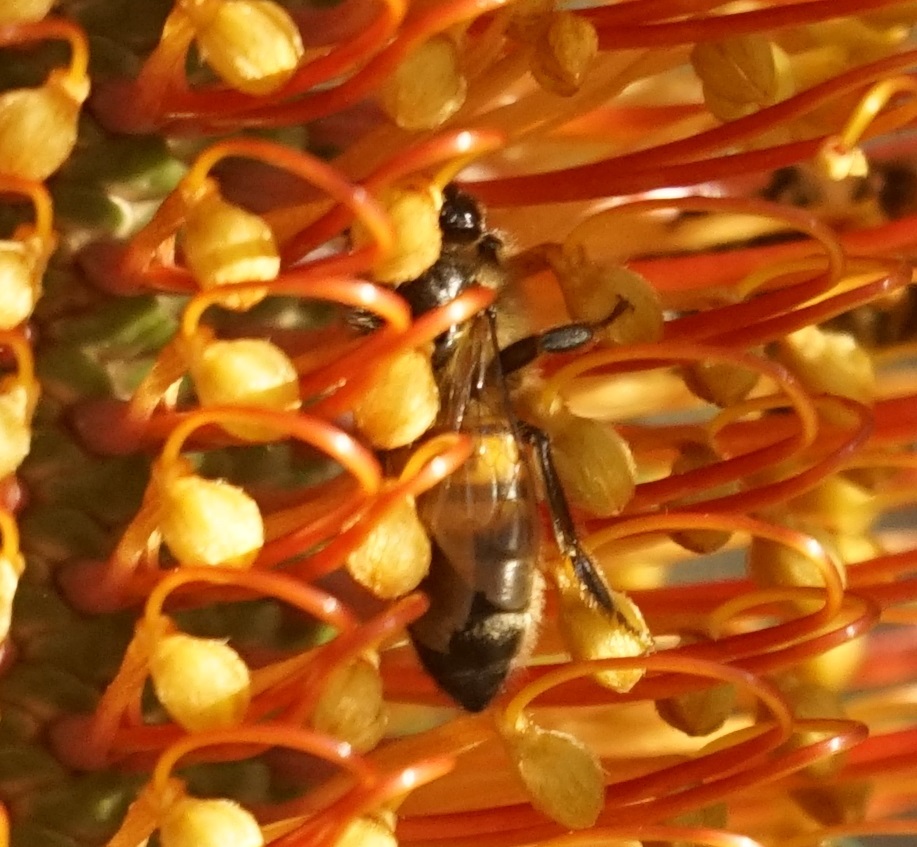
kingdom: Animalia
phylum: Arthropoda
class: Insecta
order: Hymenoptera
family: Apidae
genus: Apis
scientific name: Apis mellifera
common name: Honey bee
